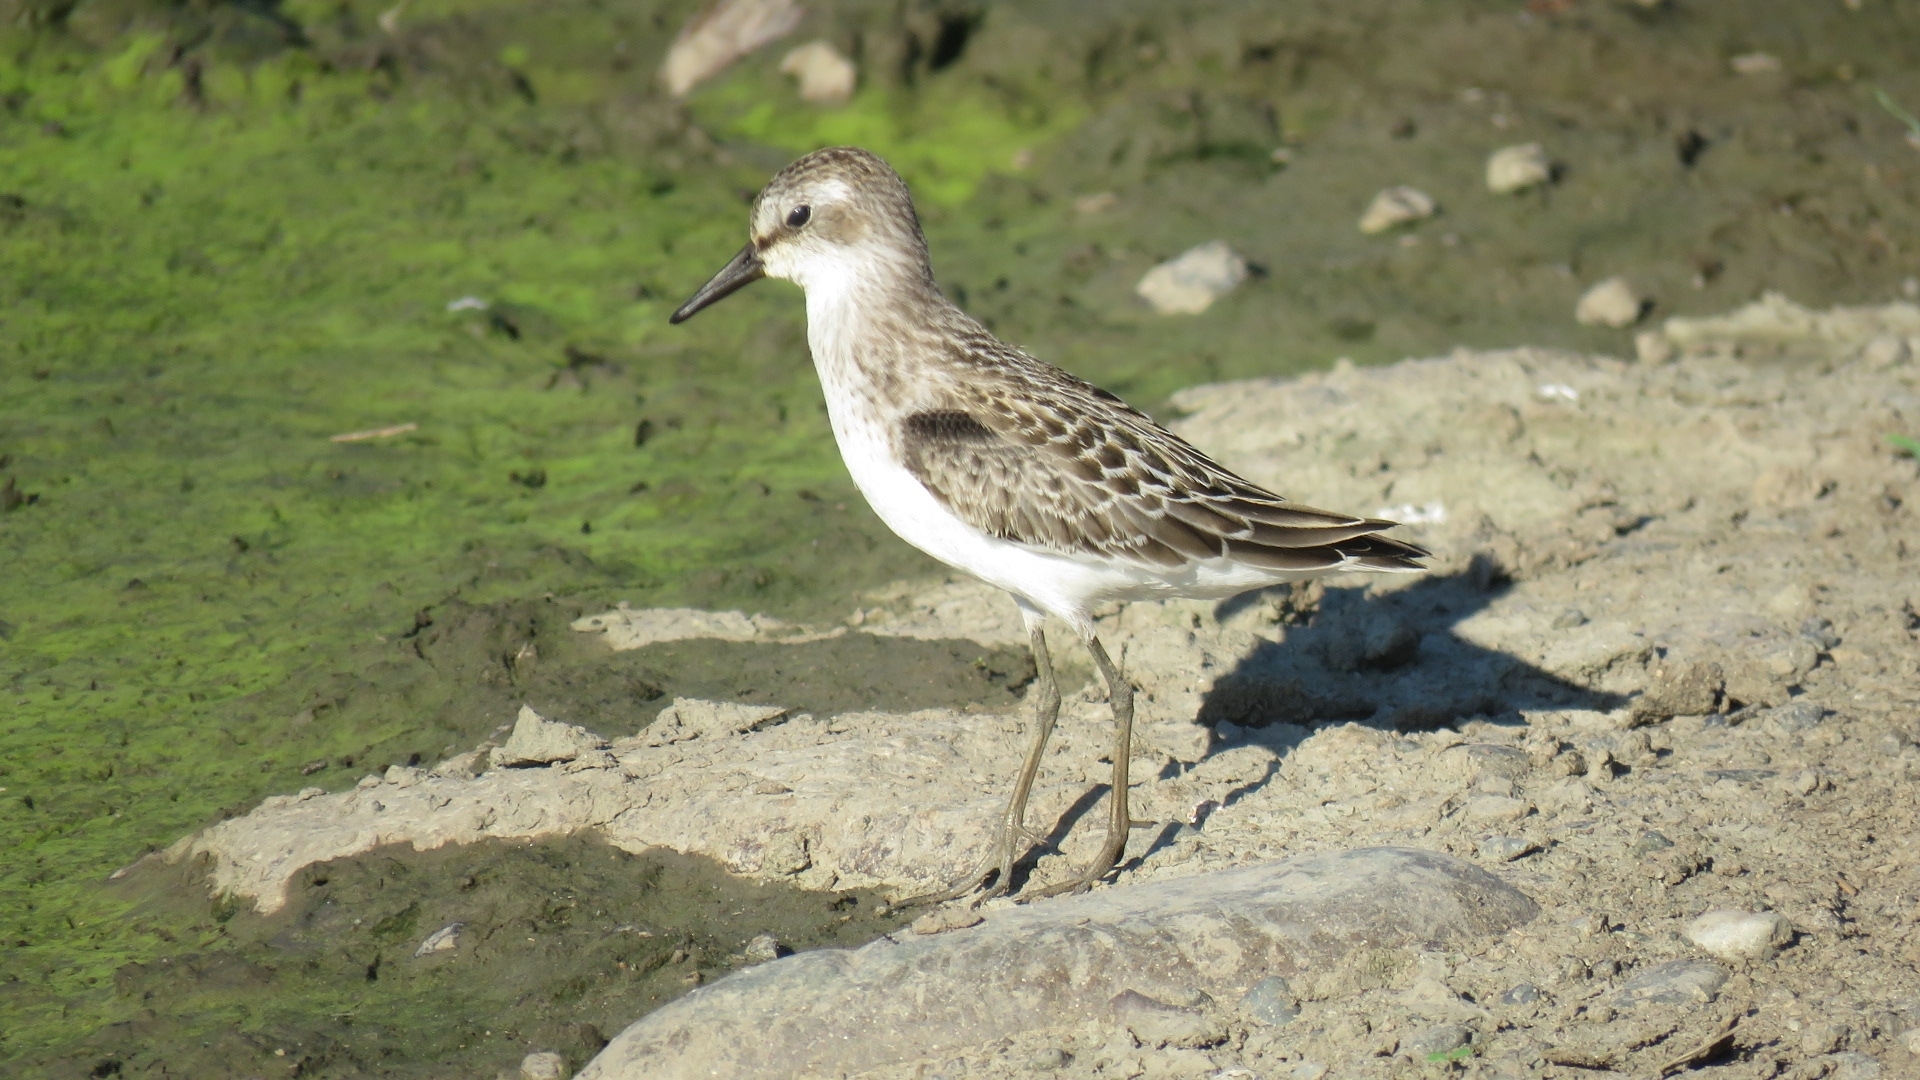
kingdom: Animalia
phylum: Chordata
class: Aves
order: Charadriiformes
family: Scolopacidae
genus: Calidris
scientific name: Calidris pusilla
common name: Semipalmated sandpiper
